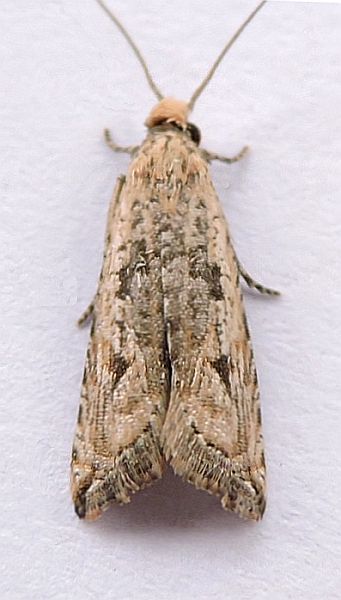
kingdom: Animalia
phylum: Arthropoda
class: Insecta
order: Lepidoptera
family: Tortricidae
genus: Bactra
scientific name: Bactra verutana
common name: Javelin moth
